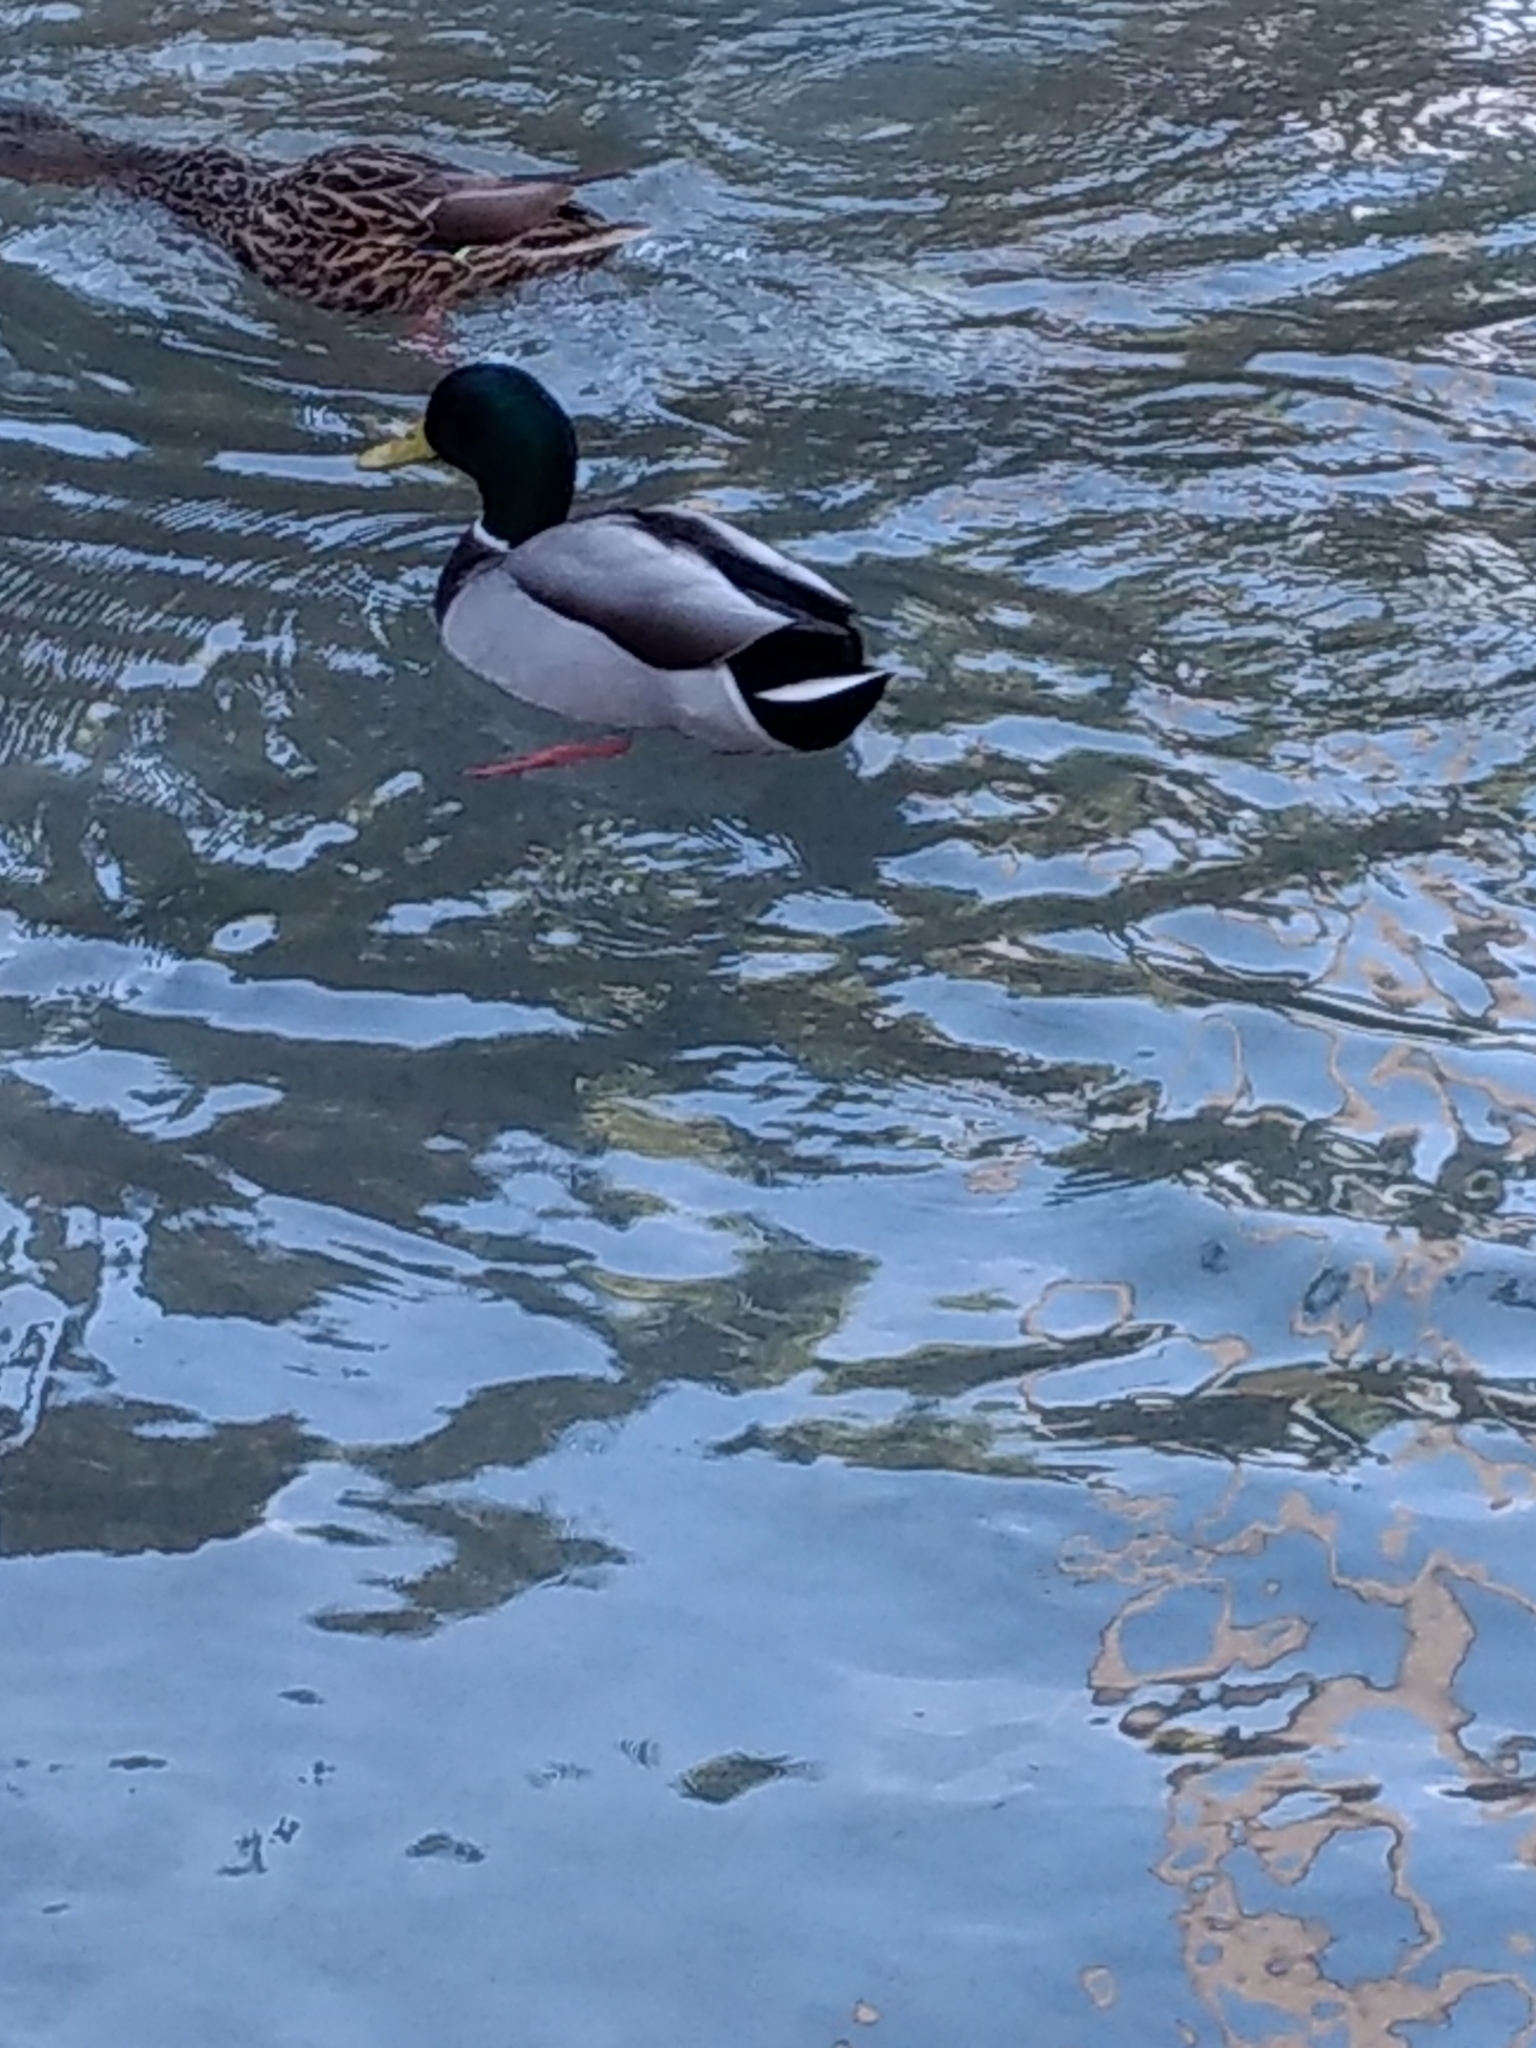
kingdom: Animalia
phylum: Chordata
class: Aves
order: Anseriformes
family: Anatidae
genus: Anas
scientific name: Anas platyrhynchos
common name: Mallard
